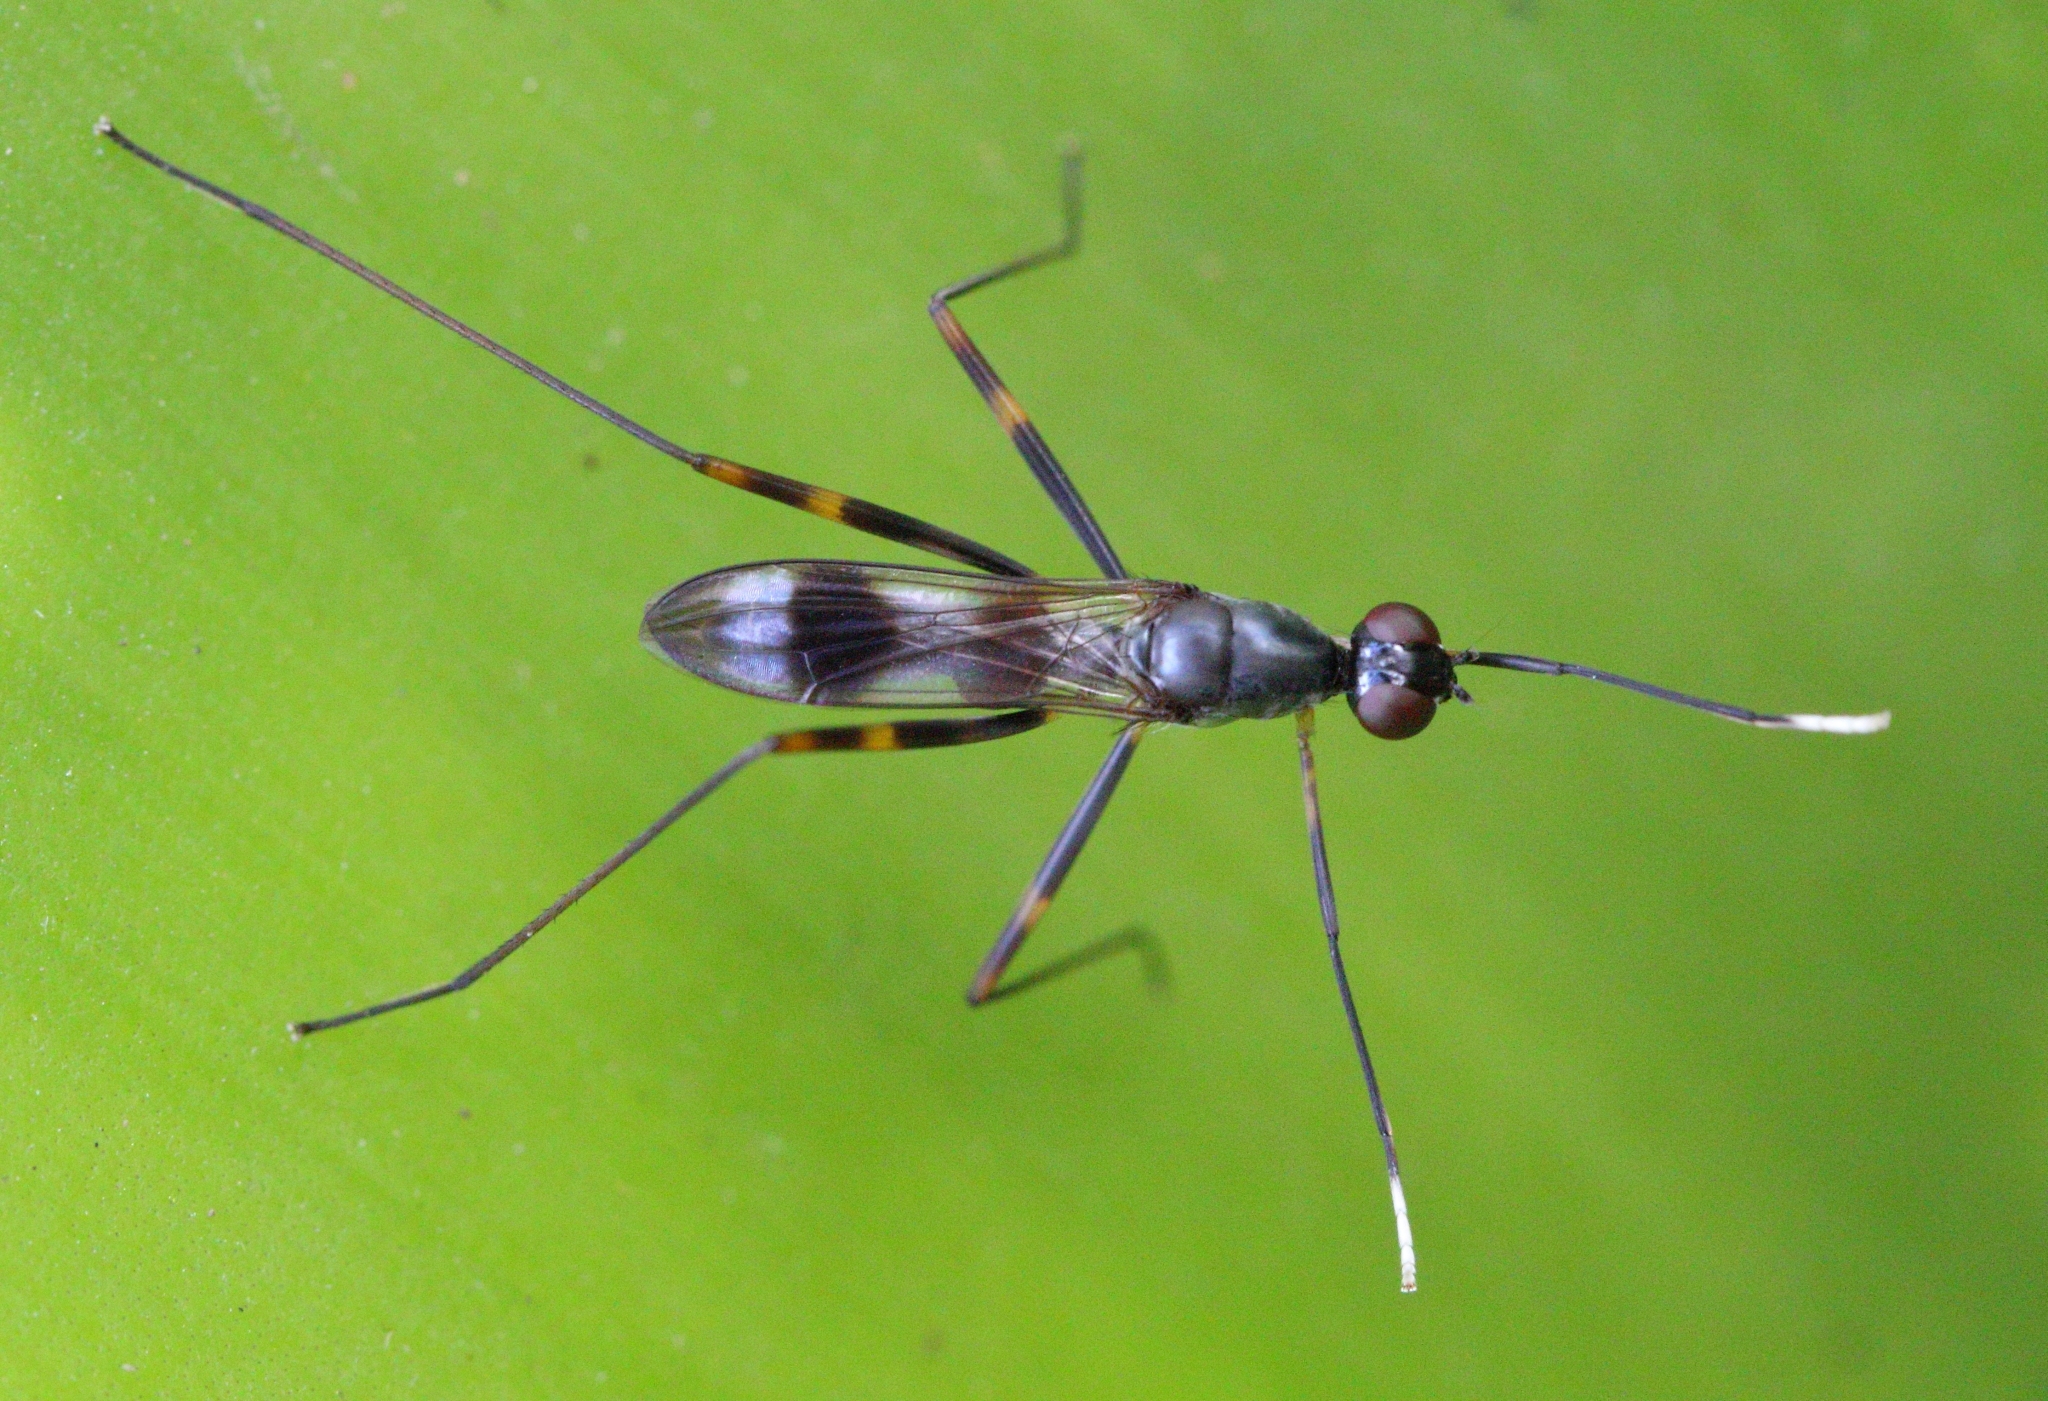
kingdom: Animalia
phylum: Arthropoda
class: Insecta
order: Diptera
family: Micropezidae
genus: Hybobata
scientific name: Hybobata
